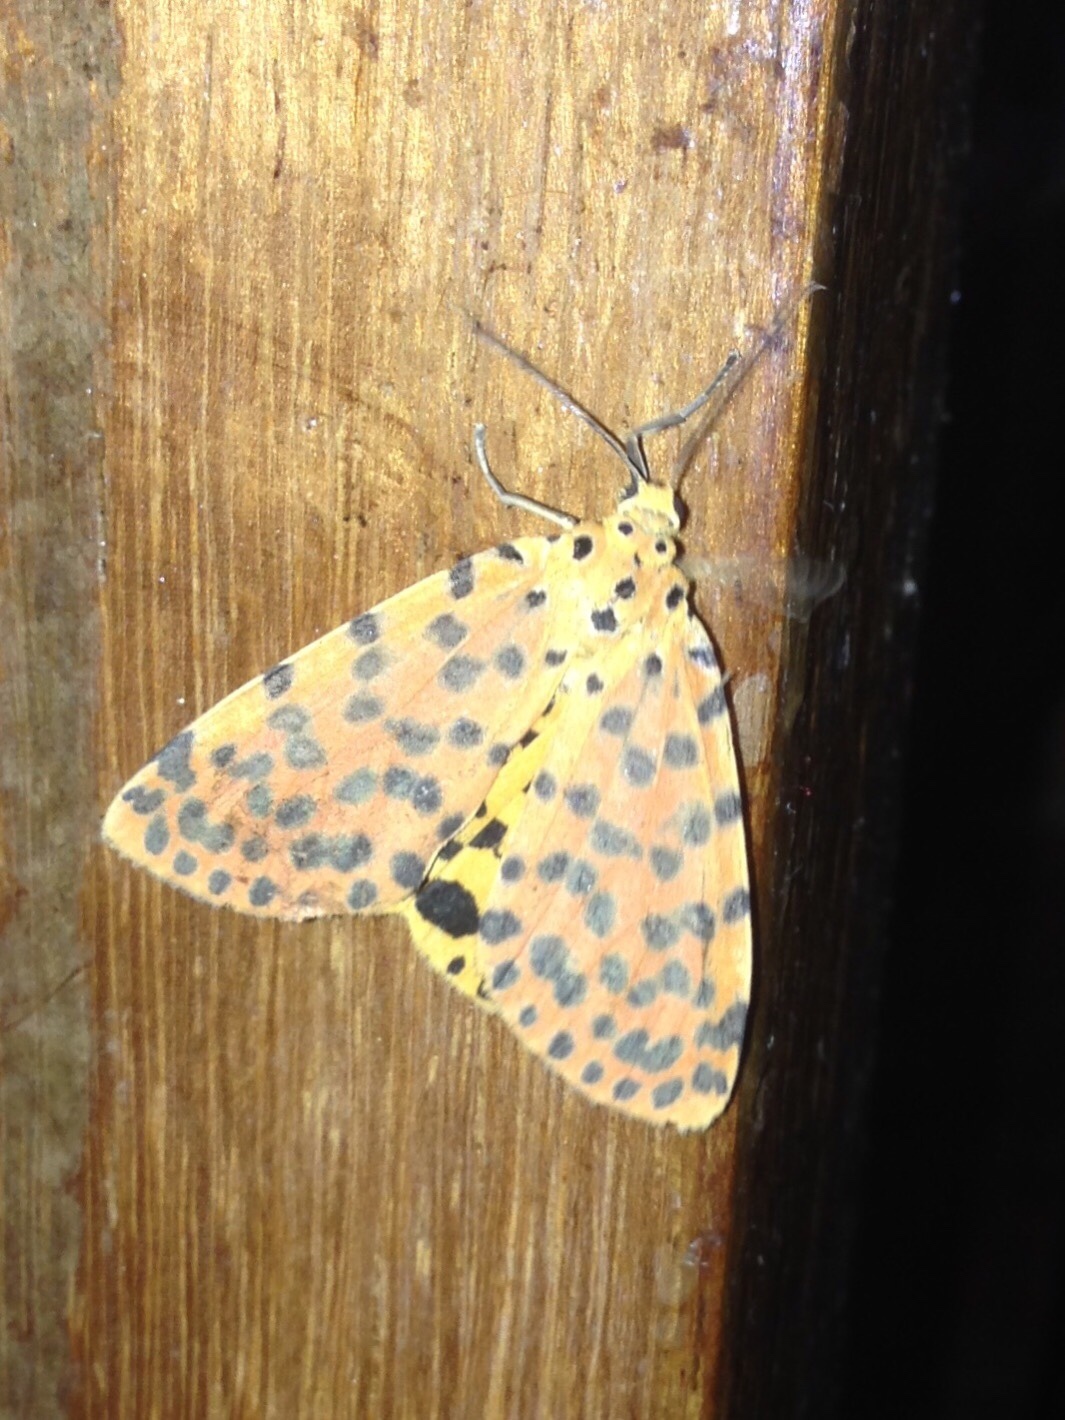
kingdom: Animalia
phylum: Arthropoda
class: Insecta
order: Lepidoptera
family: Erebidae
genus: Argina
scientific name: Argina astrea
